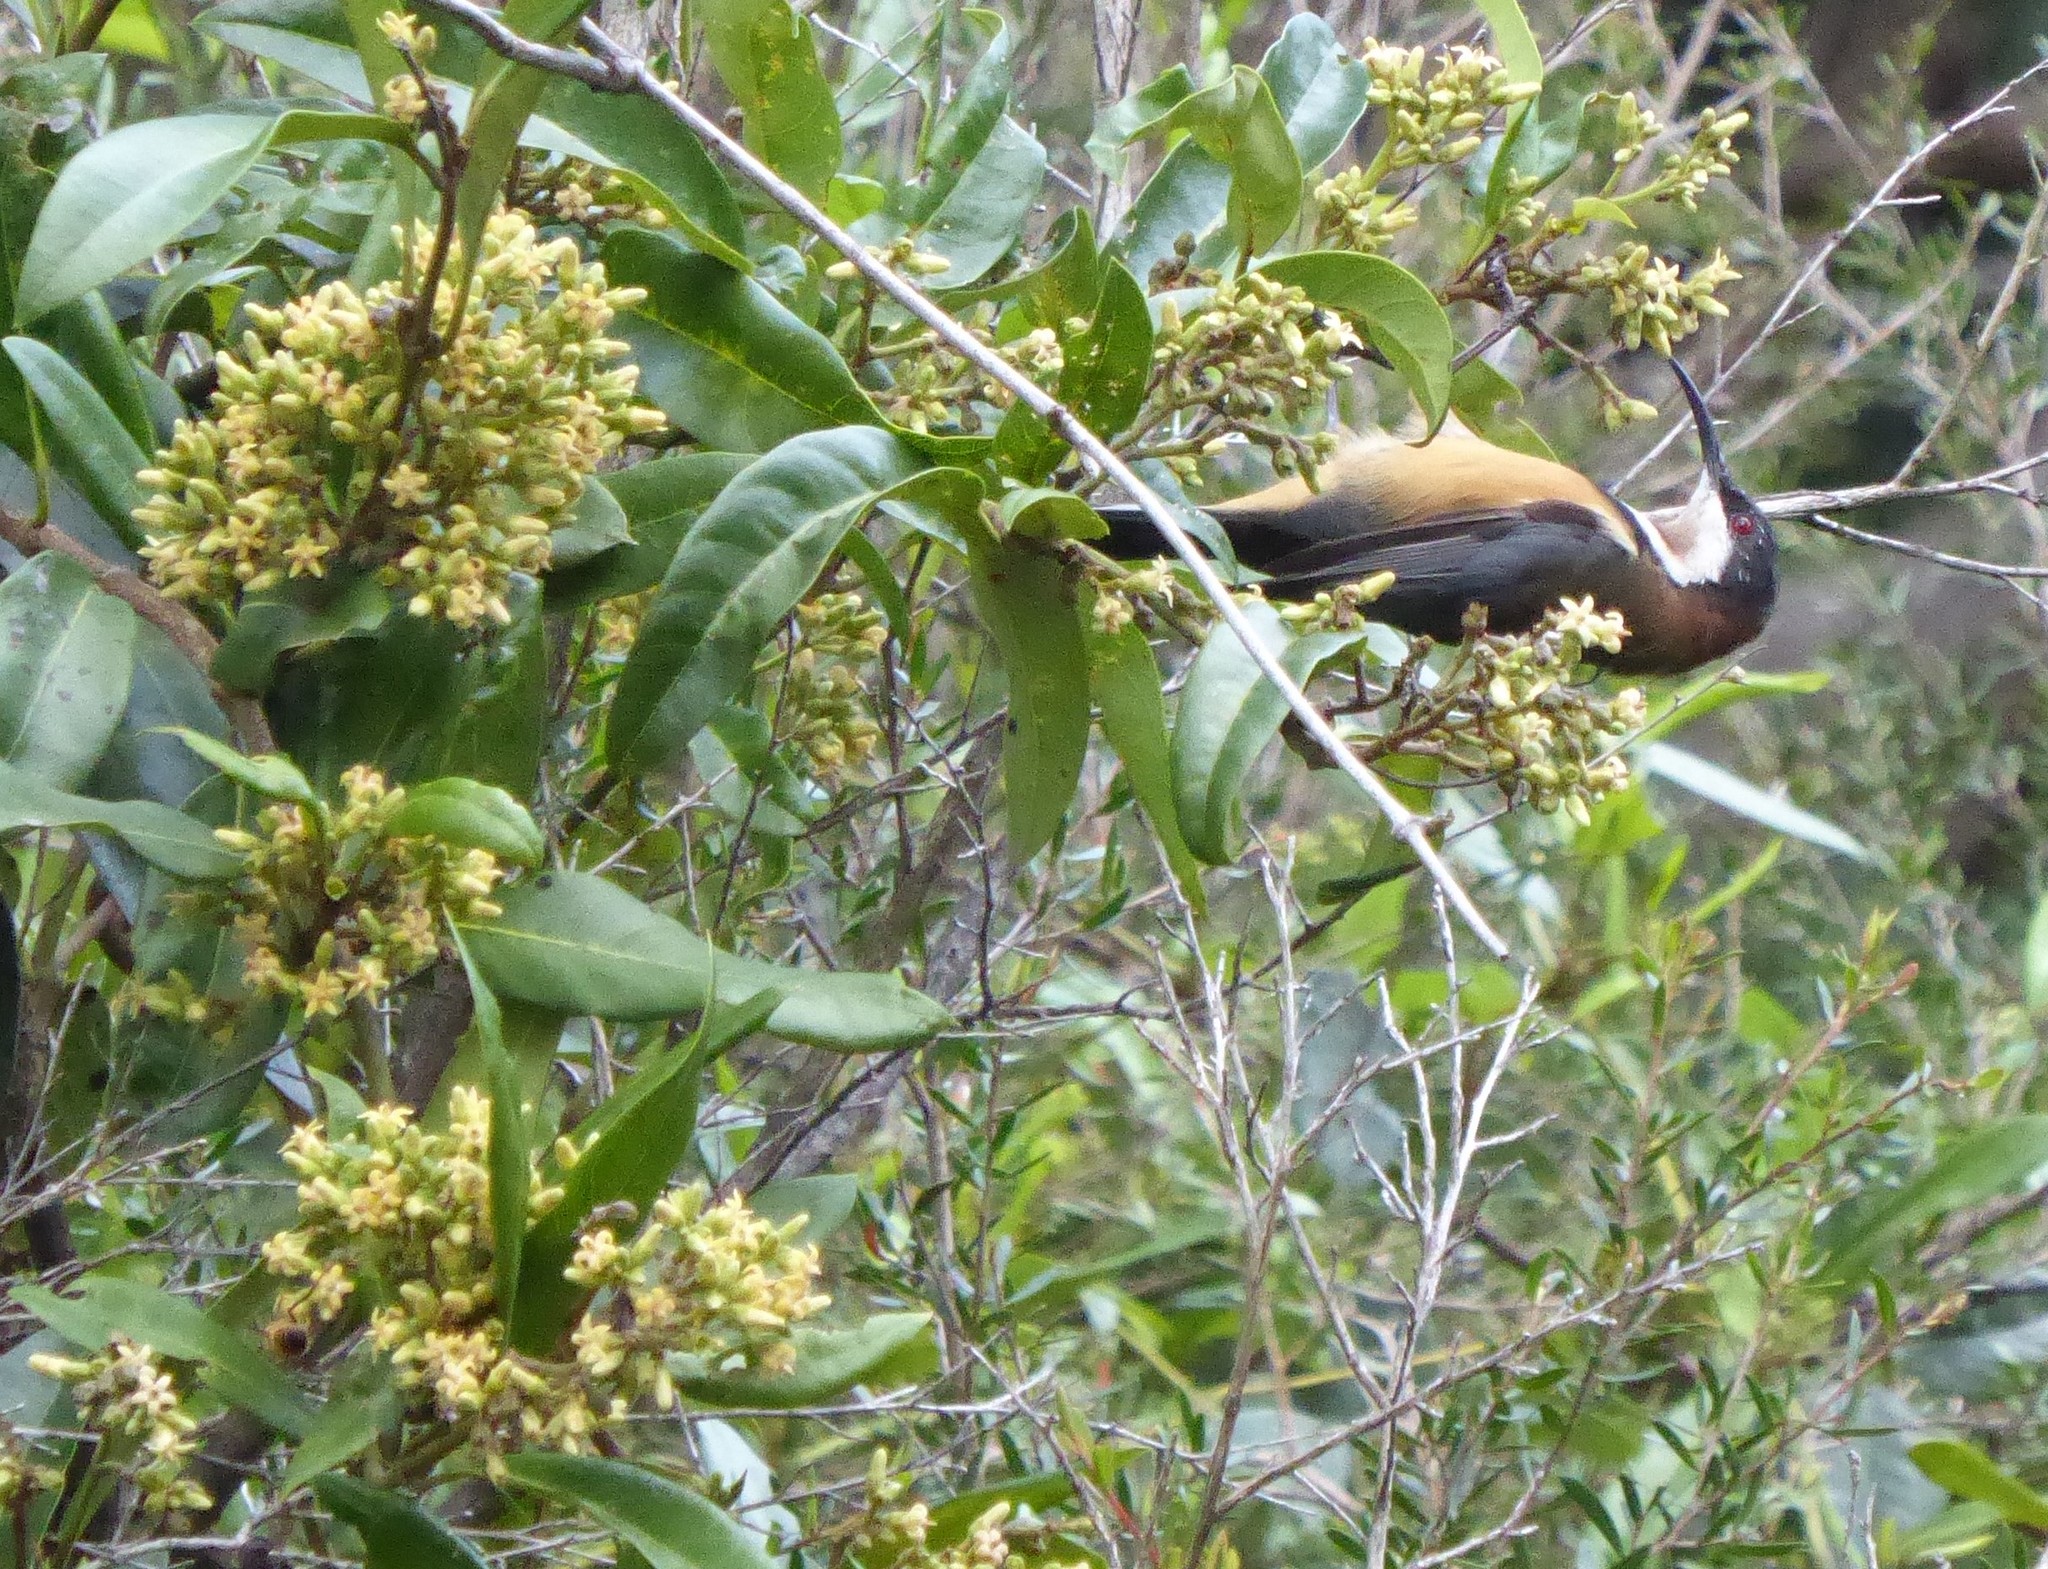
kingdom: Animalia
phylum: Chordata
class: Aves
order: Passeriformes
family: Meliphagidae
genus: Acanthorhynchus
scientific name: Acanthorhynchus tenuirostris
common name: Eastern spinebill
